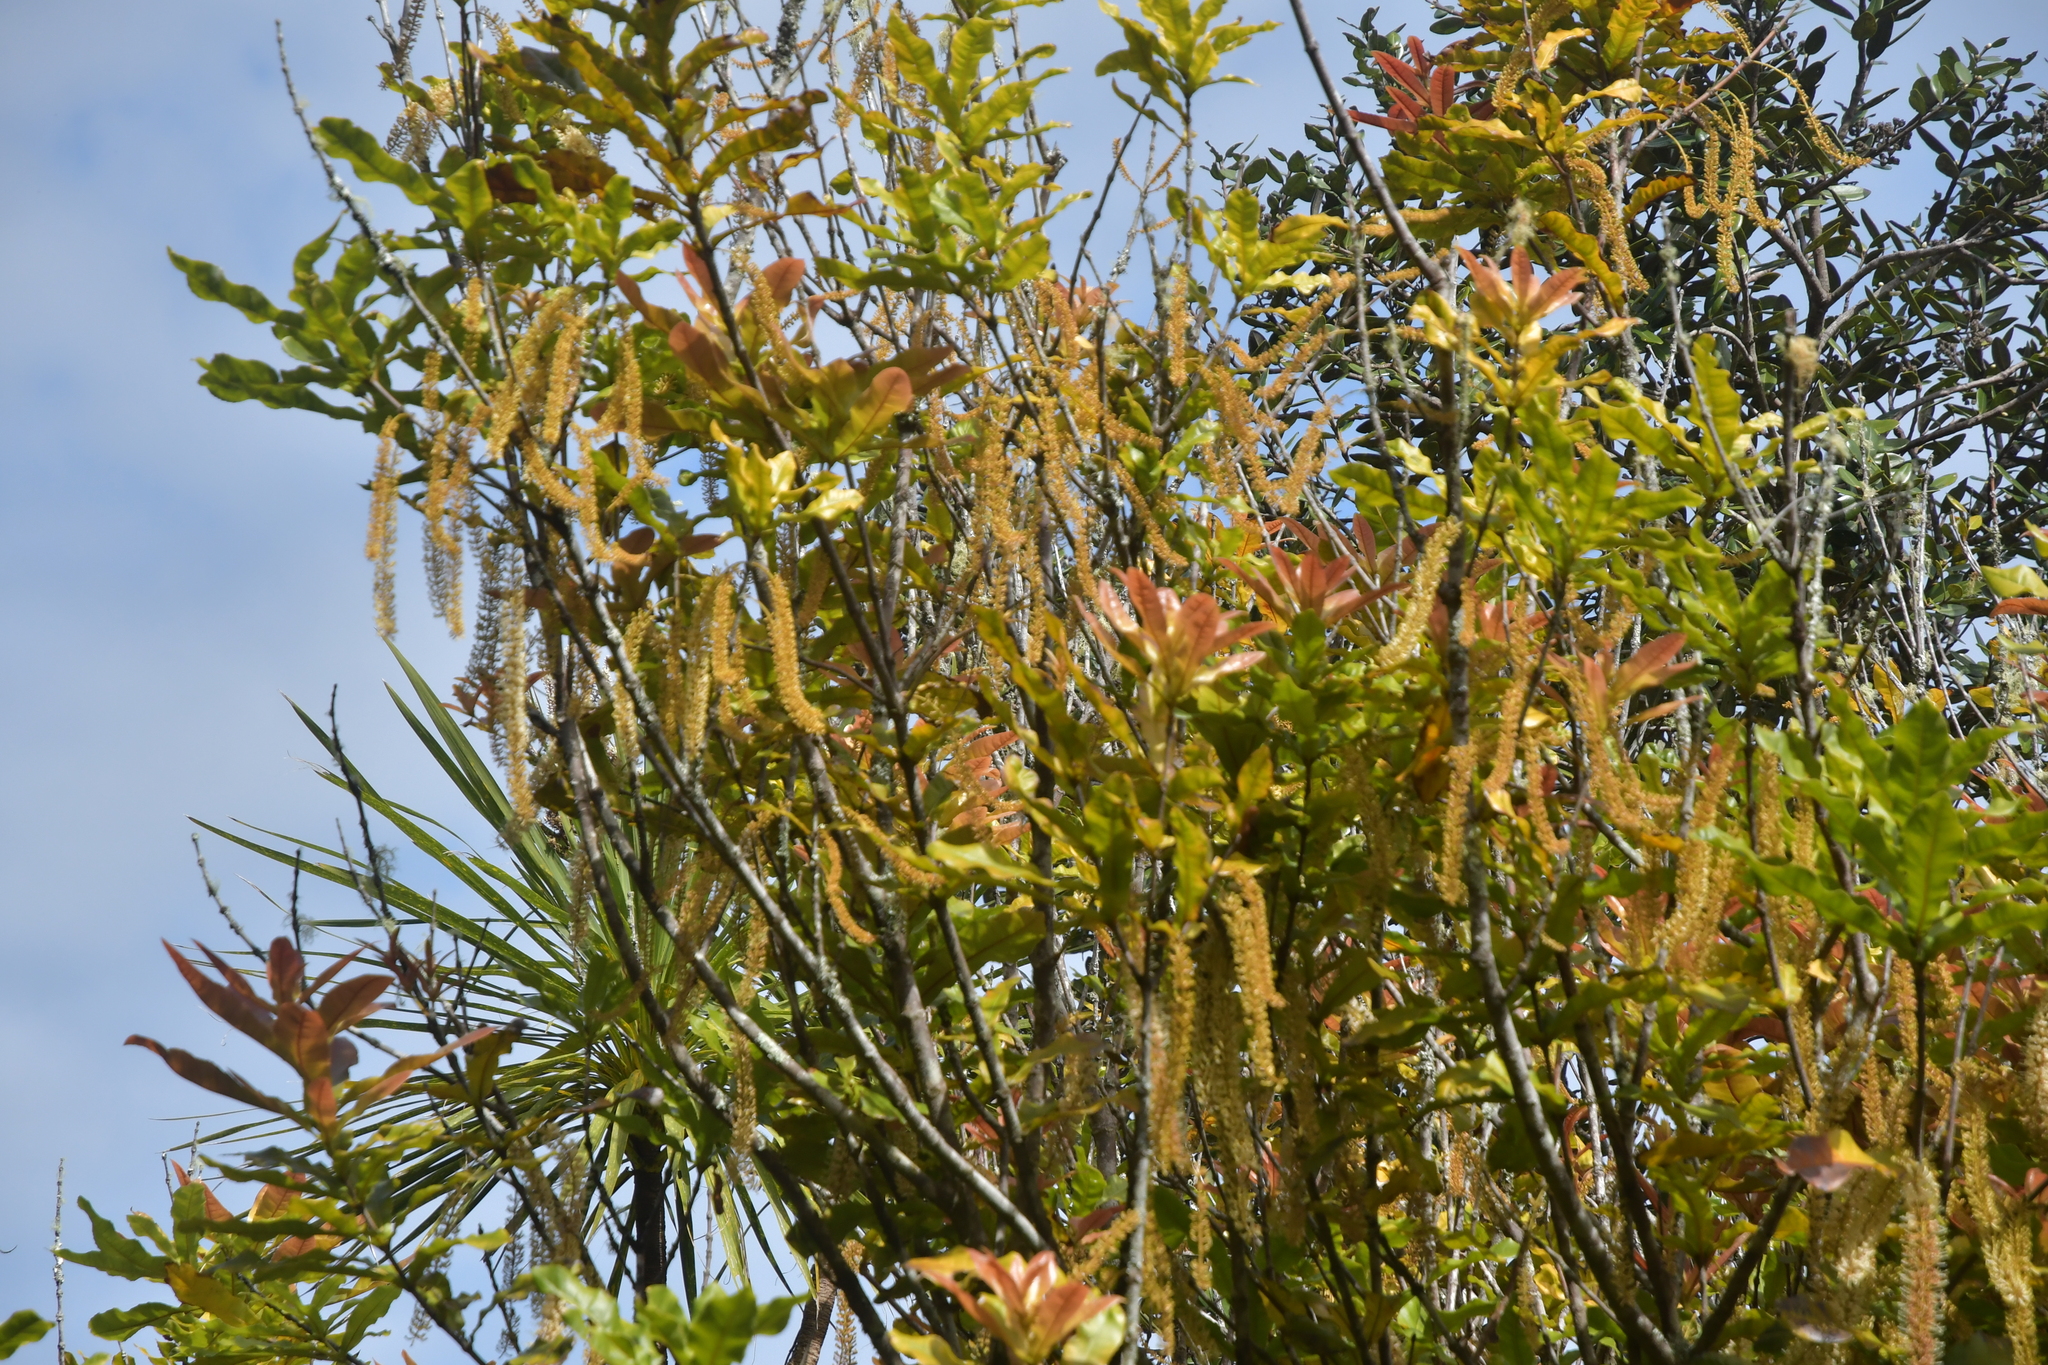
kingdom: Plantae
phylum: Tracheophyta
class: Magnoliopsida
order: Proteales
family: Proteaceae
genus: Macadamia
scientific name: Macadamia integrifolia
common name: Macadamia
